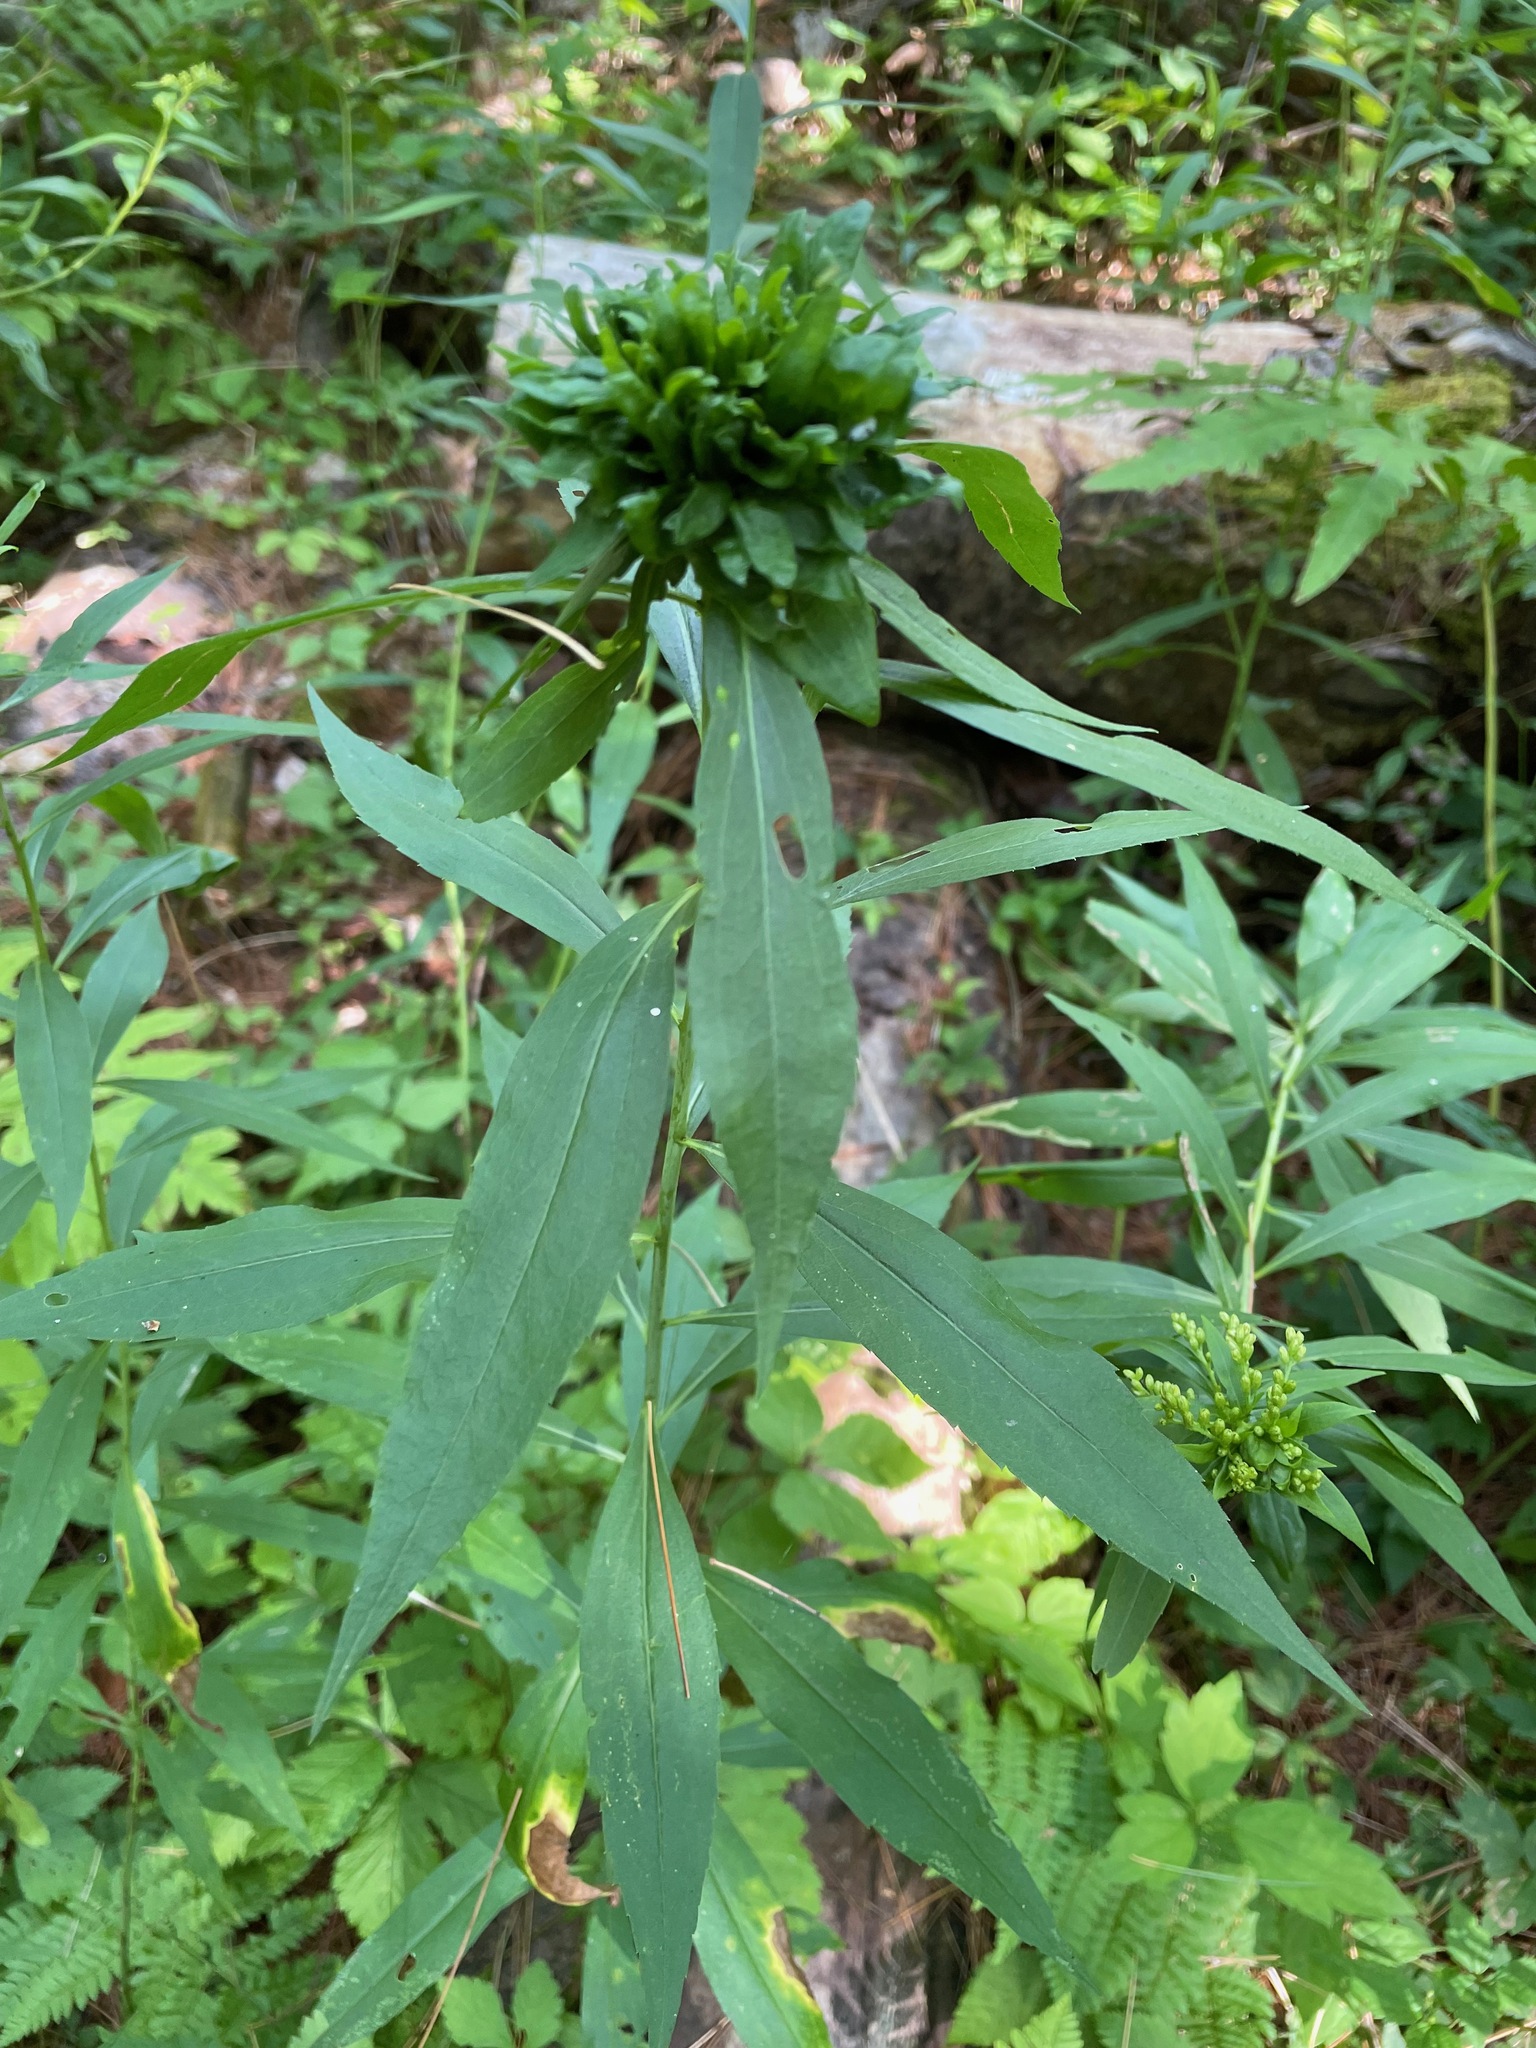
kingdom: Animalia
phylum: Arthropoda
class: Insecta
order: Diptera
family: Cecidomyiidae
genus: Rhopalomyia
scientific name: Rhopalomyia capitata
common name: Giant goldenrod bunch gall midge
